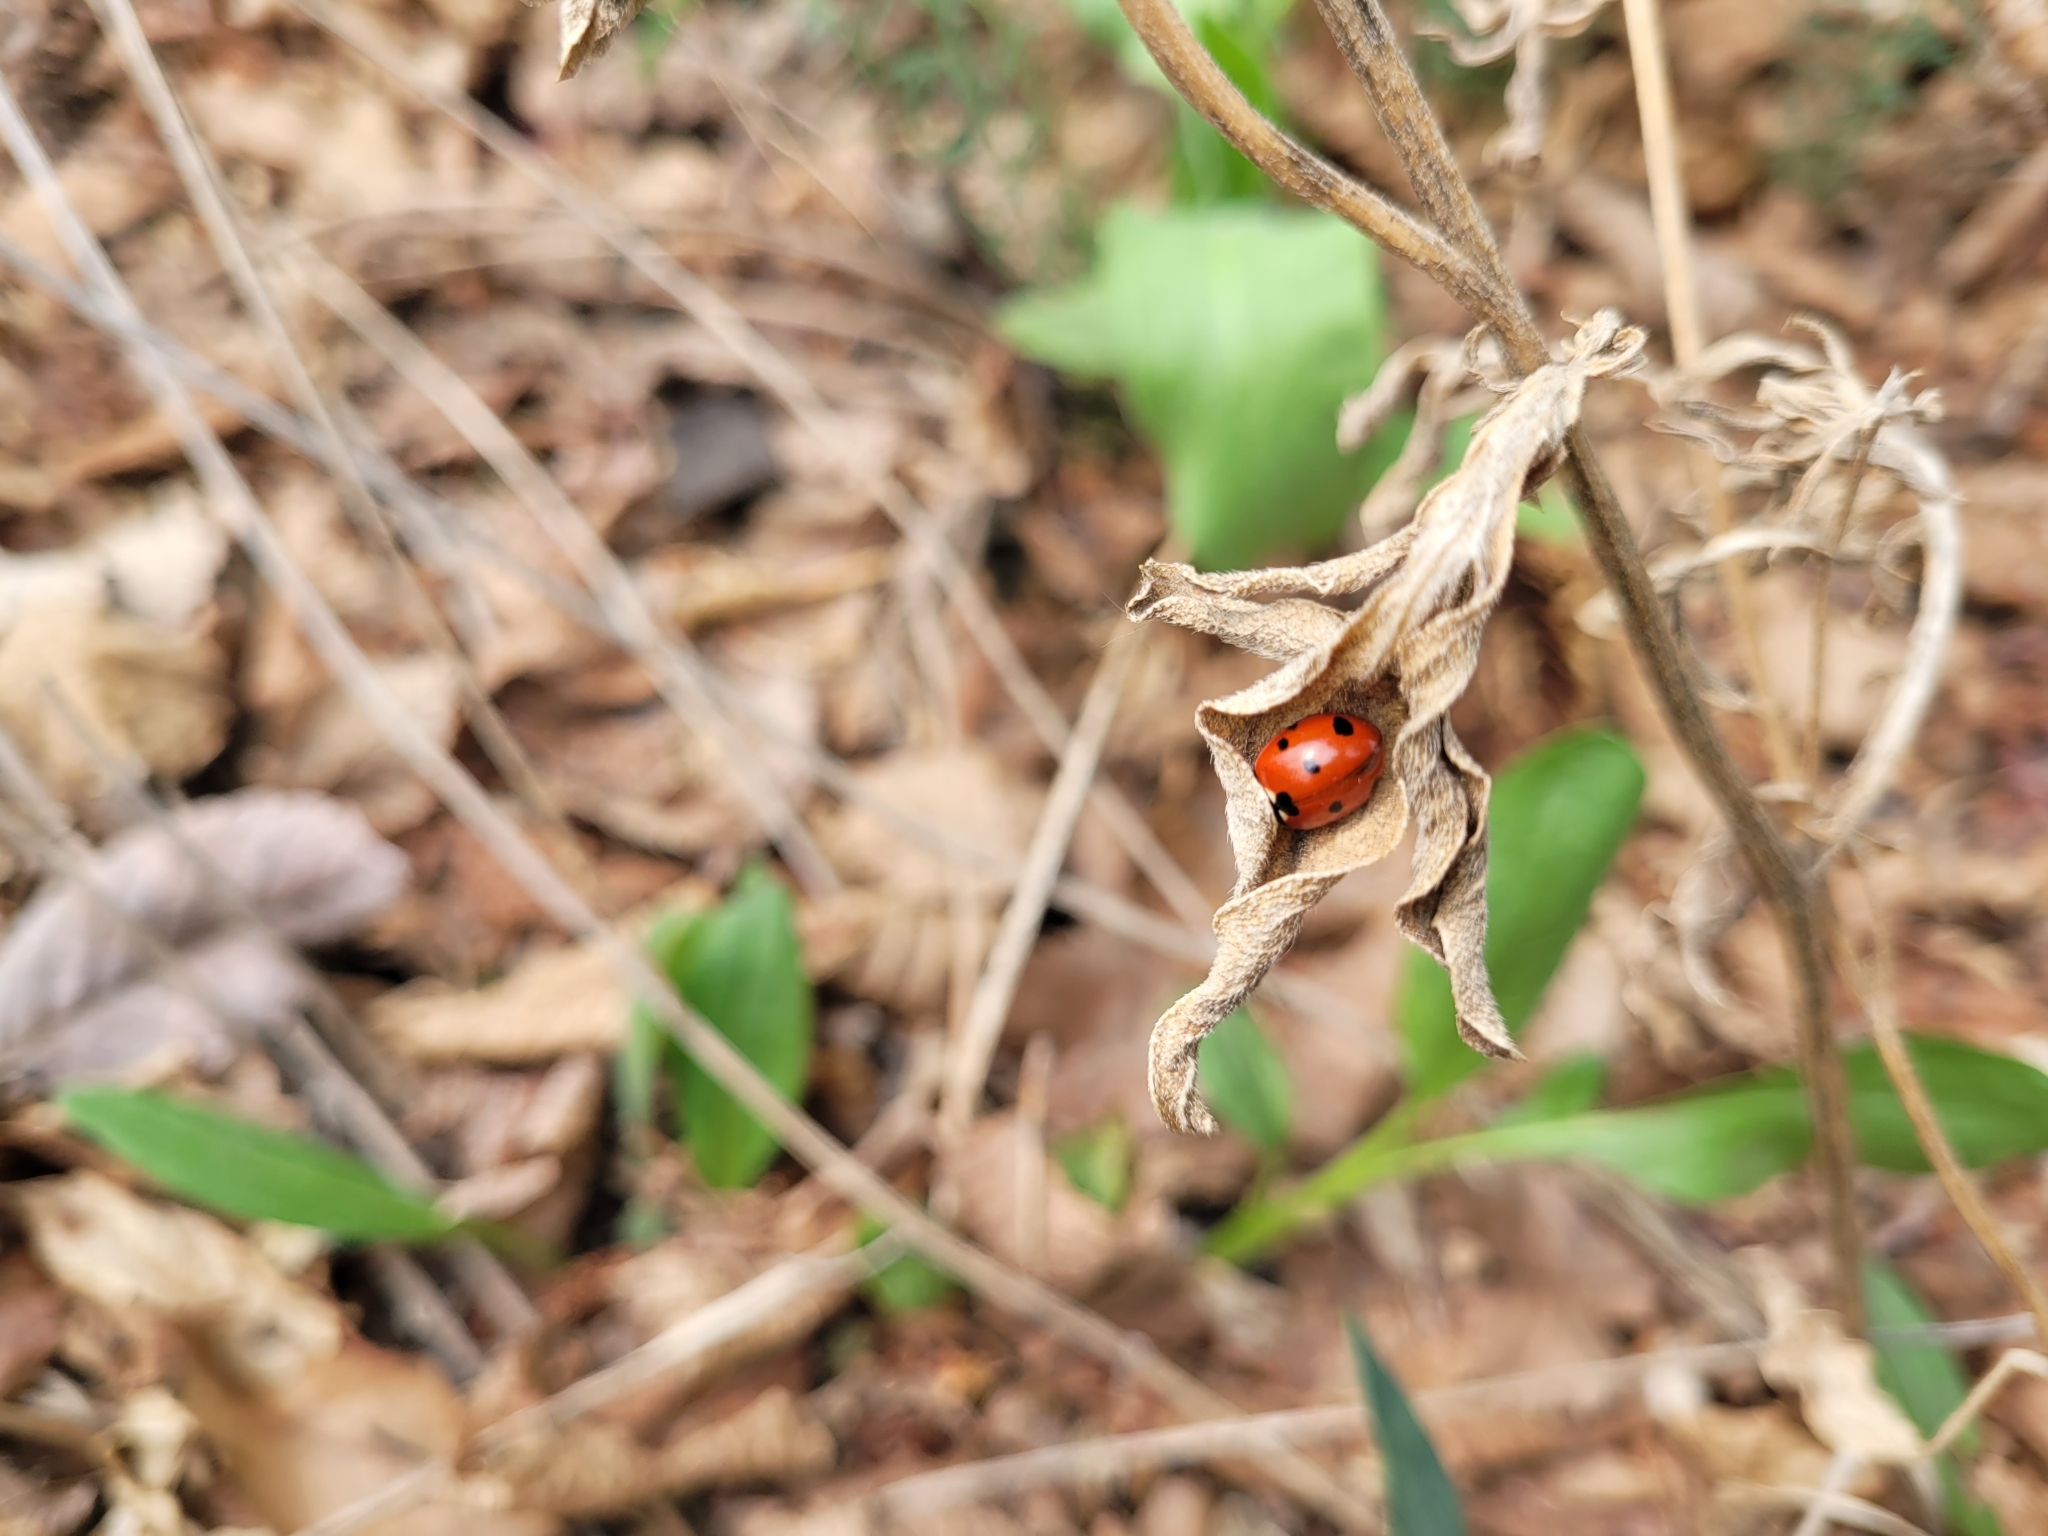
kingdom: Animalia
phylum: Arthropoda
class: Insecta
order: Coleoptera
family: Coccinellidae
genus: Coccinella
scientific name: Coccinella septempunctata
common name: Sevenspotted lady beetle
